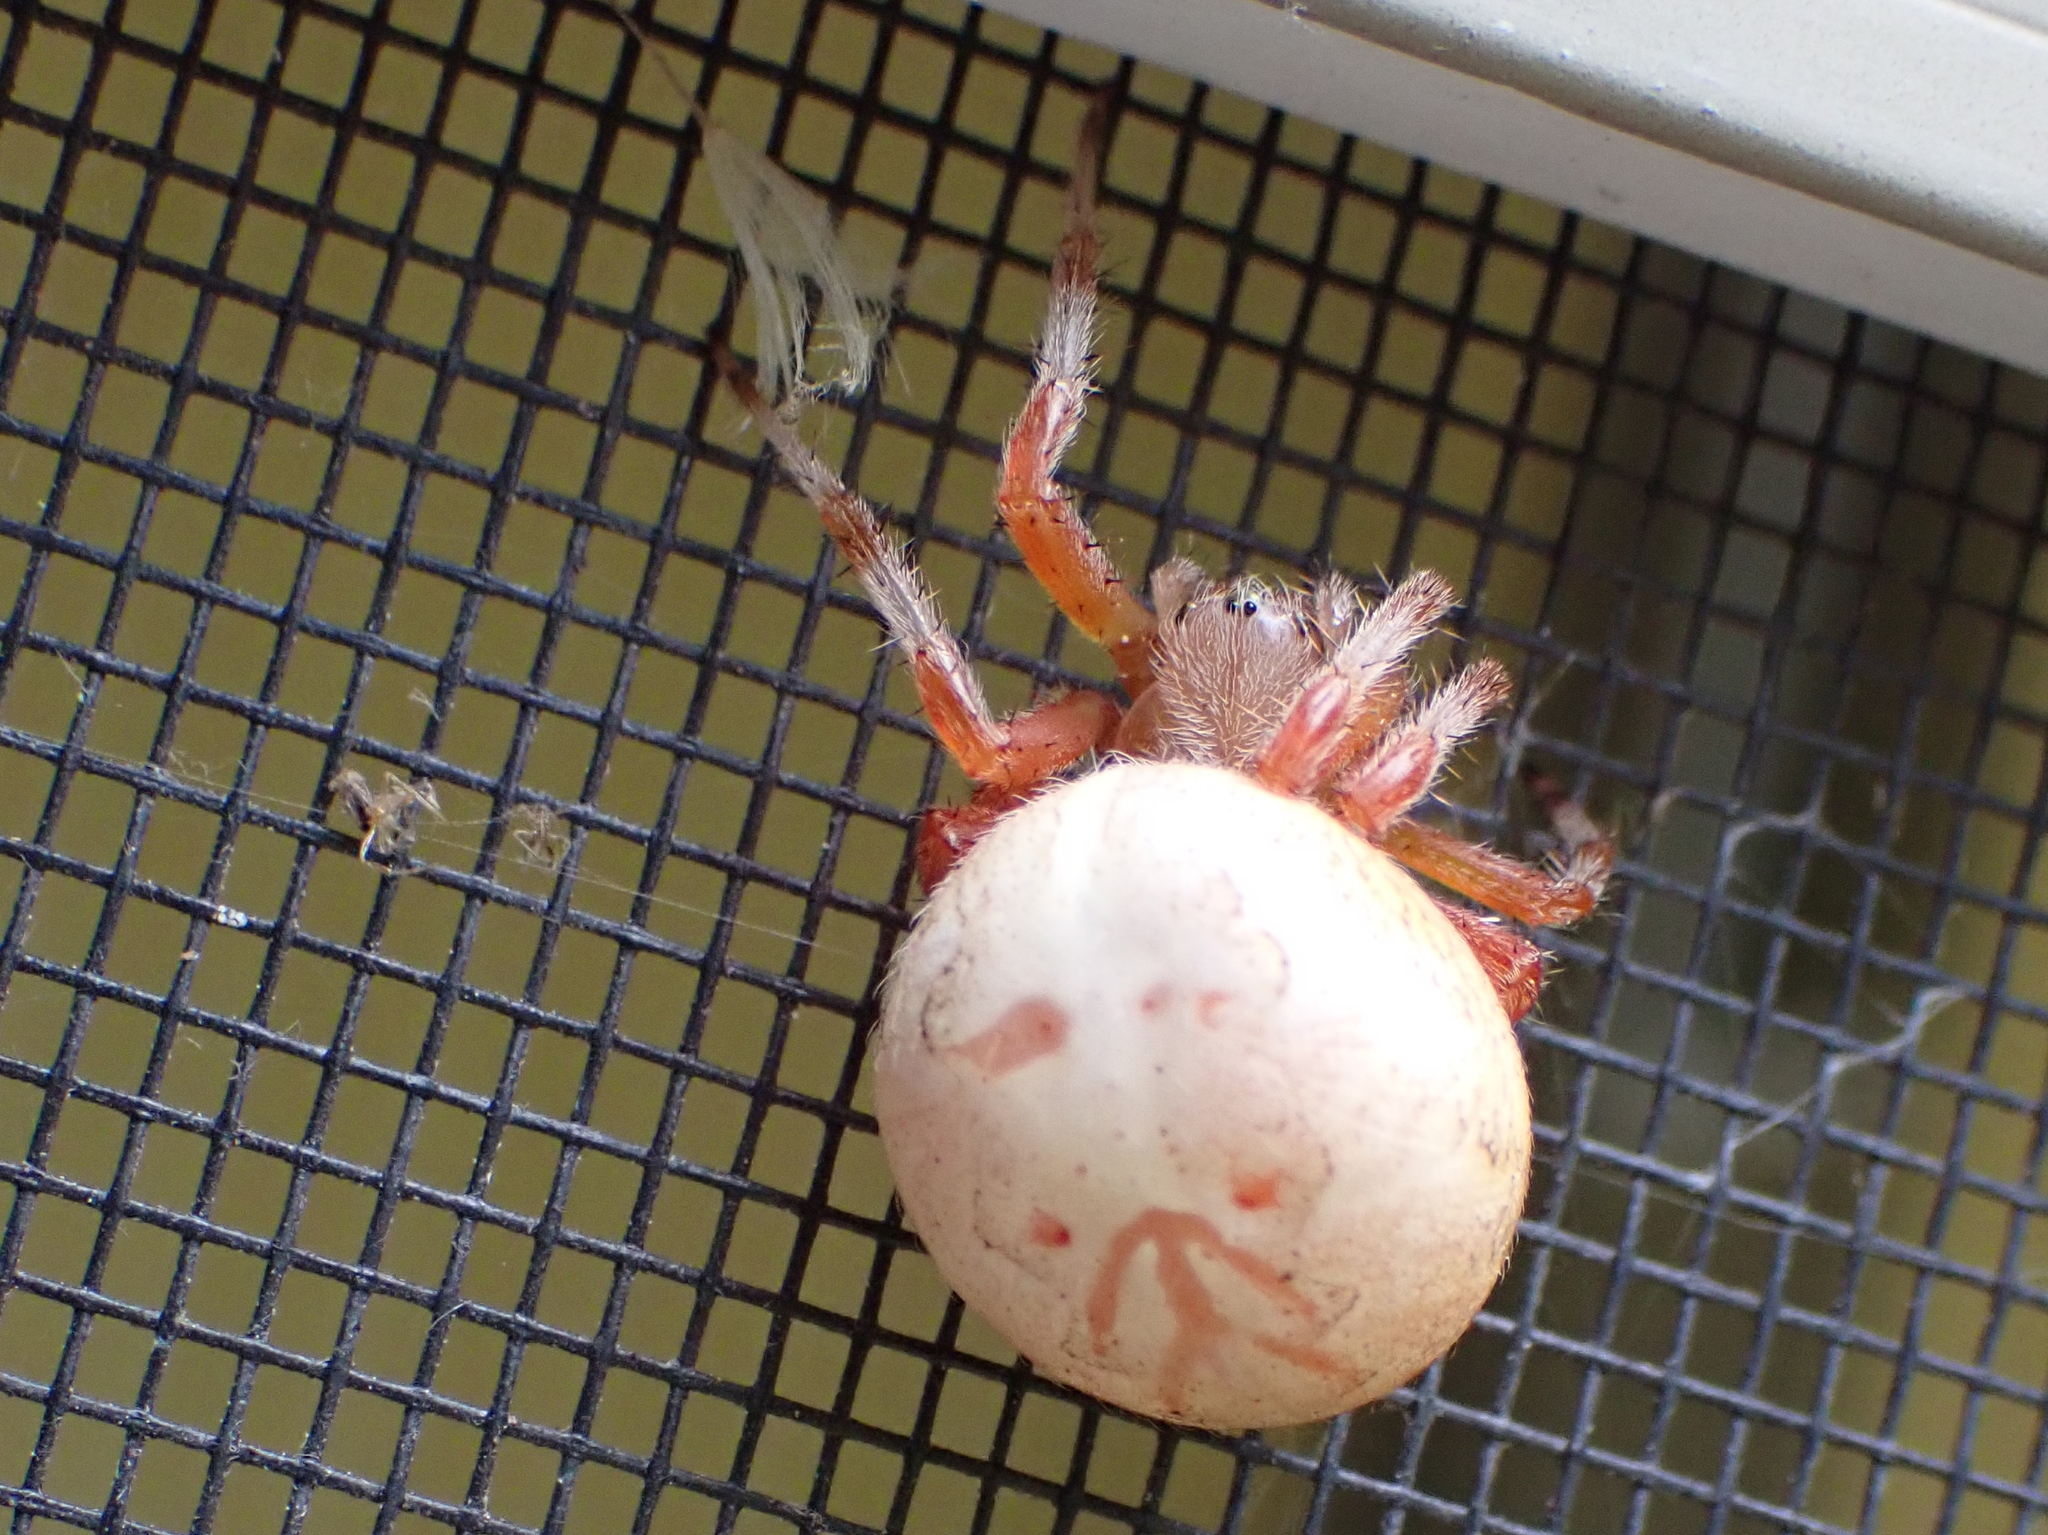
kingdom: Animalia
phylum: Arthropoda
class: Arachnida
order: Araneae
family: Araneidae
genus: Araneus
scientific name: Araneus marmoreus
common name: Marbled orbweaver
